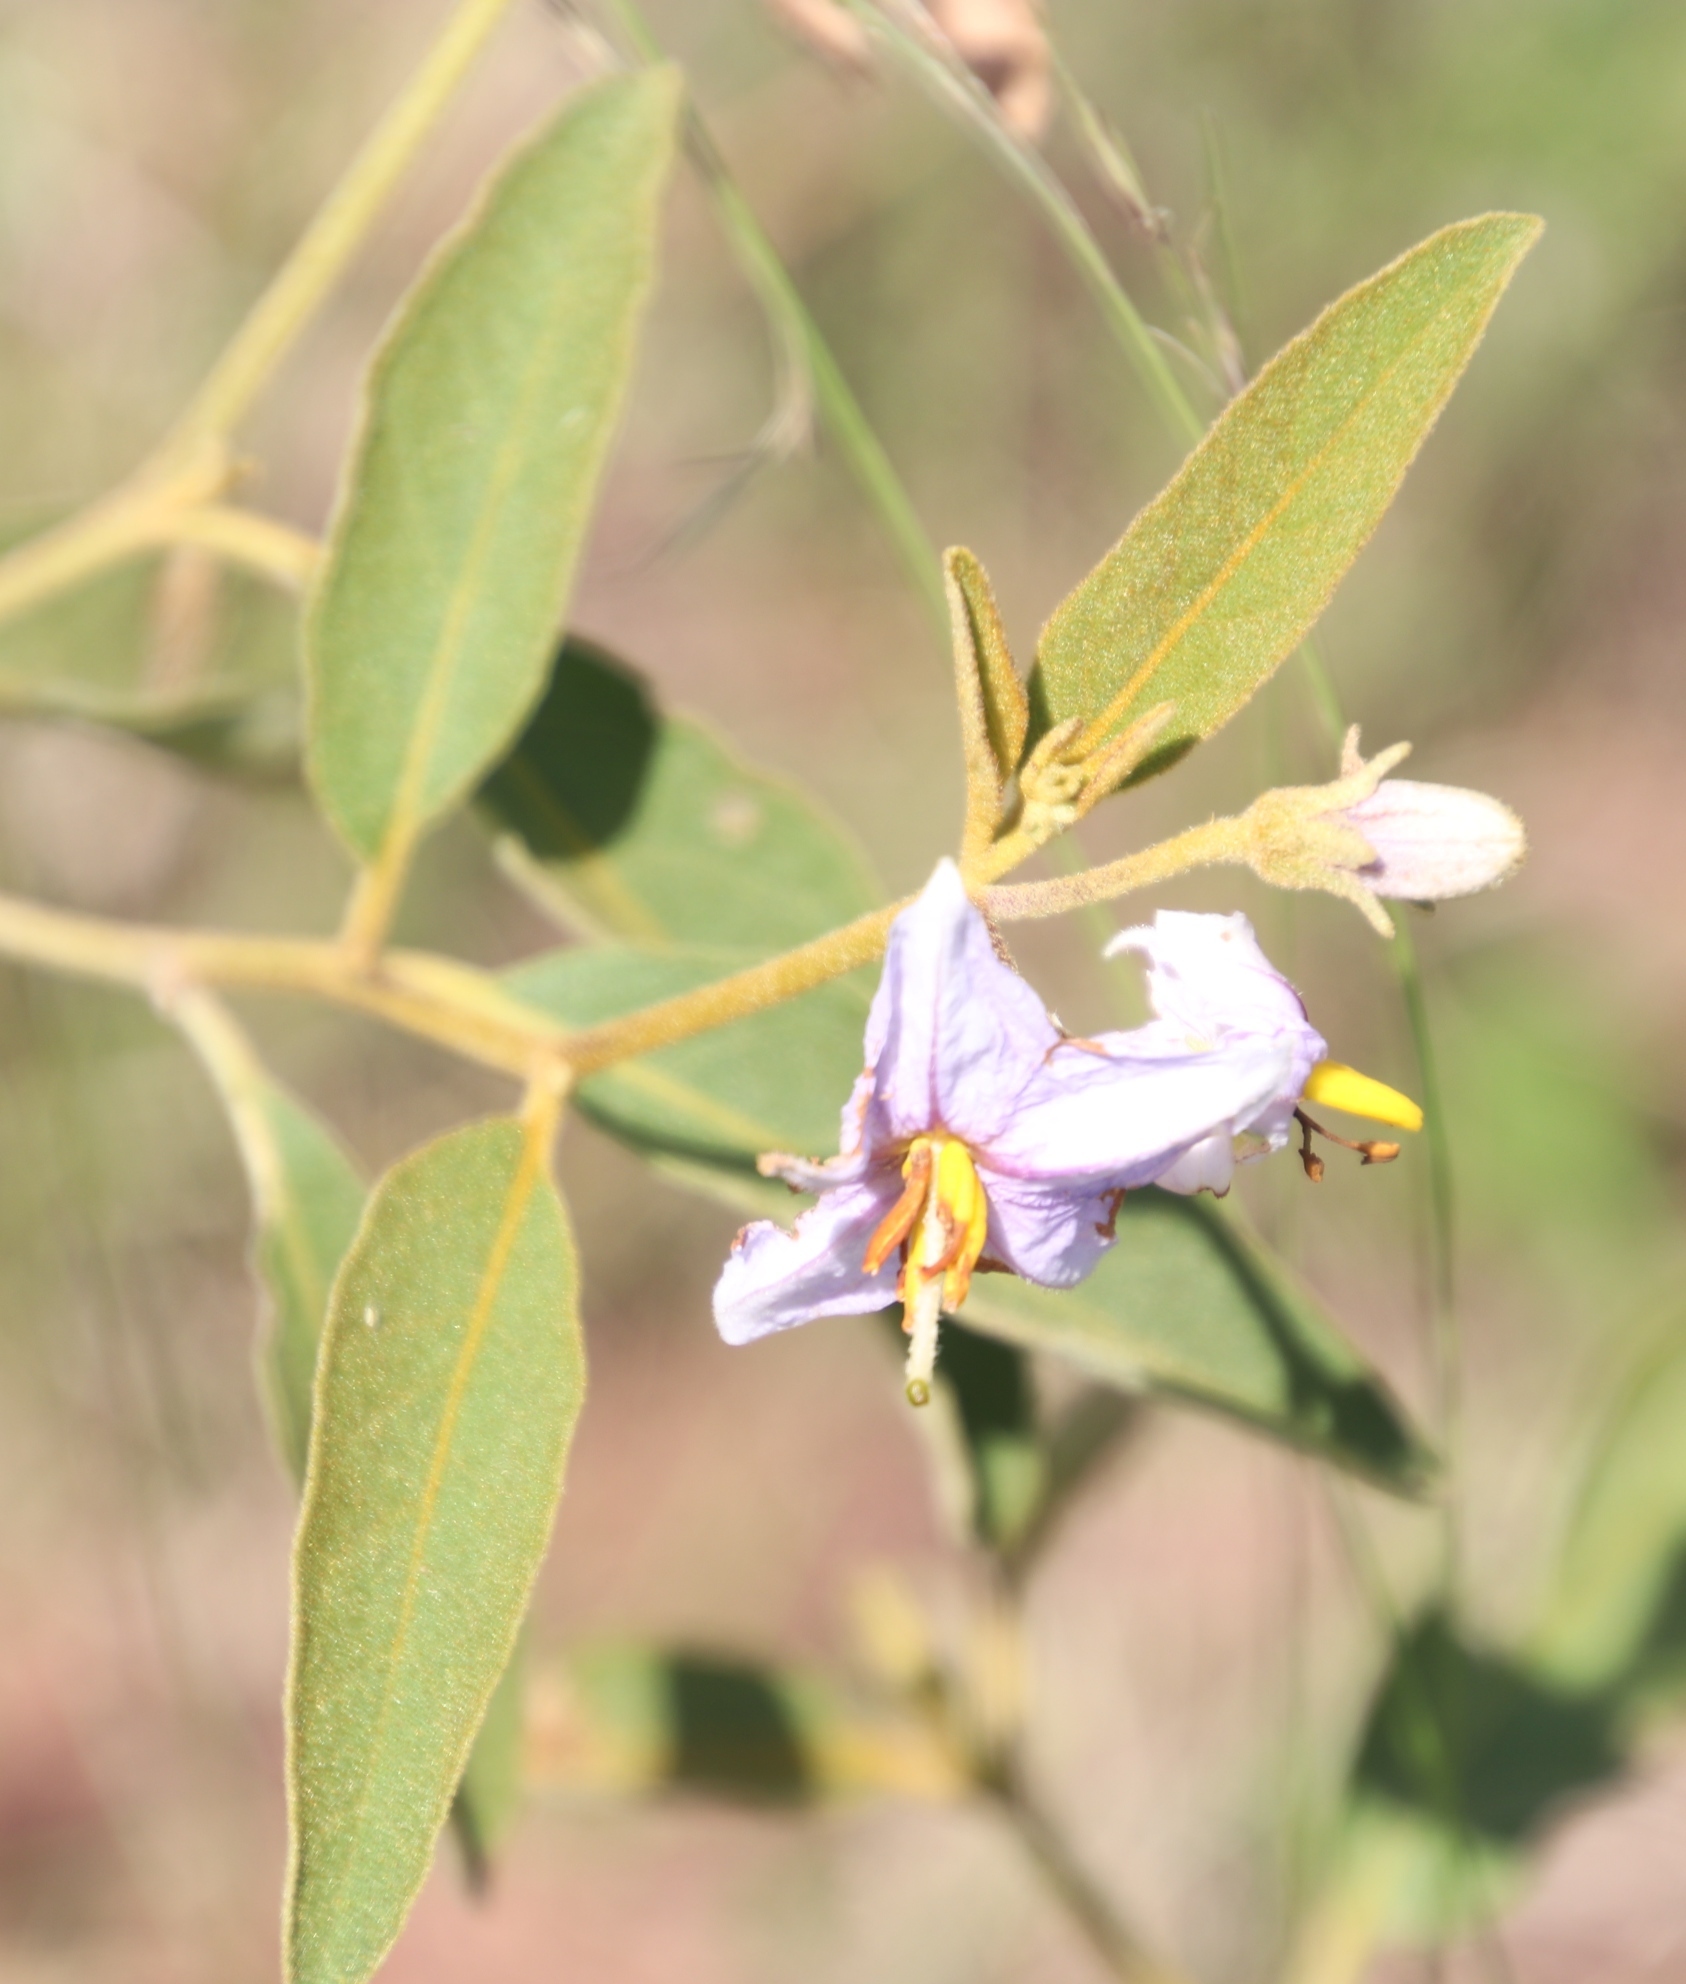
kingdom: Plantae
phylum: Tracheophyta
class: Magnoliopsida
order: Solanales
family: Solanaceae
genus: Solanum
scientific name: Solanum campylacanthum
